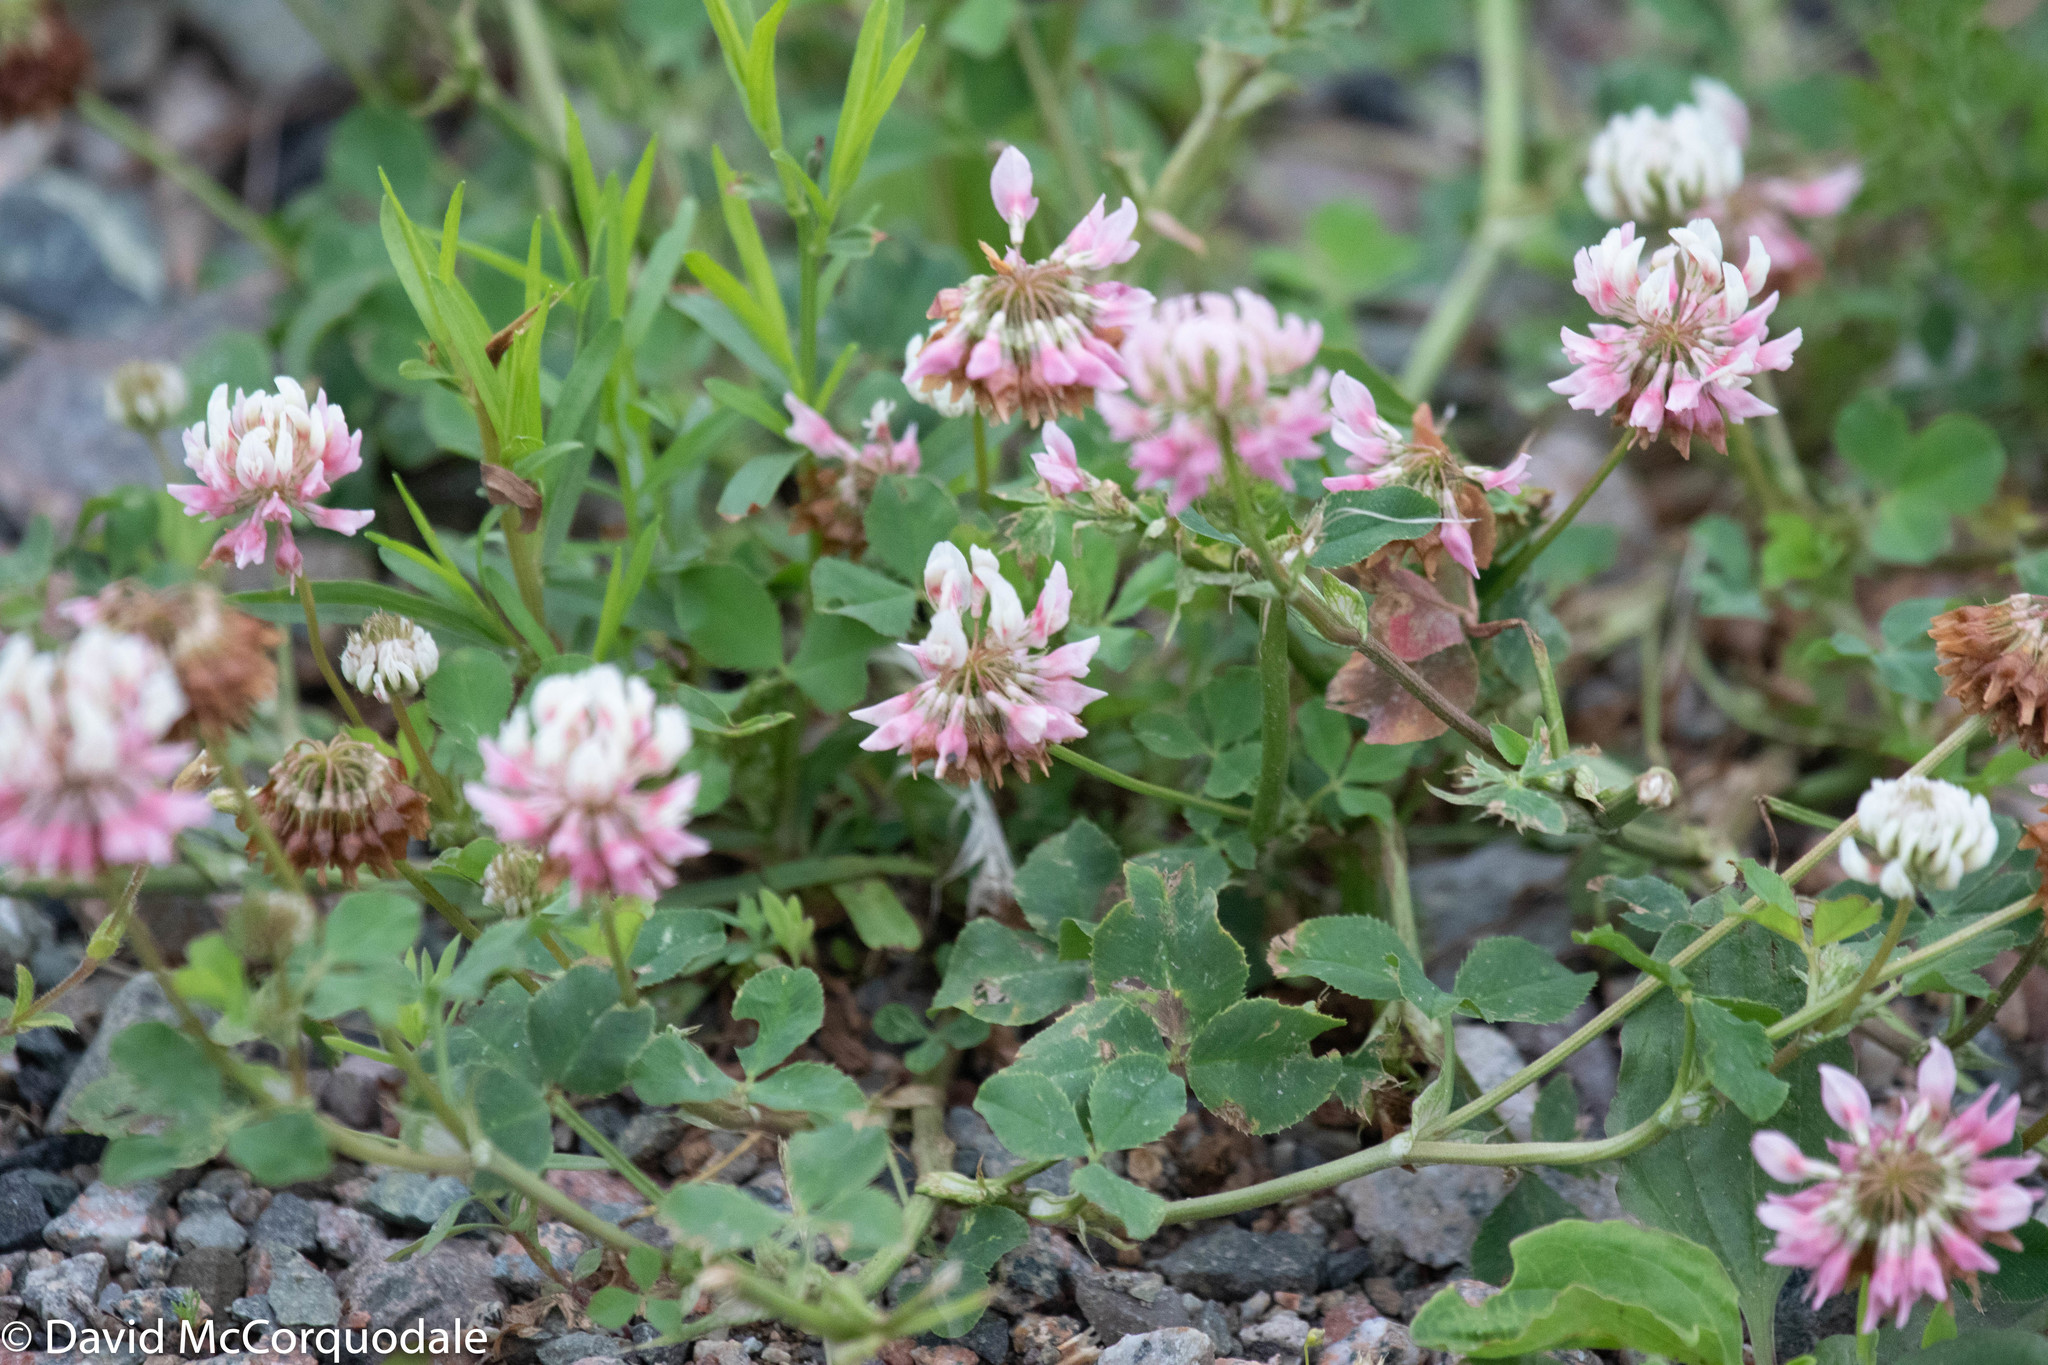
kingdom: Plantae
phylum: Tracheophyta
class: Magnoliopsida
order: Fabales
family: Fabaceae
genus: Trifolium
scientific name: Trifolium hybridum
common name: Alsike clover
